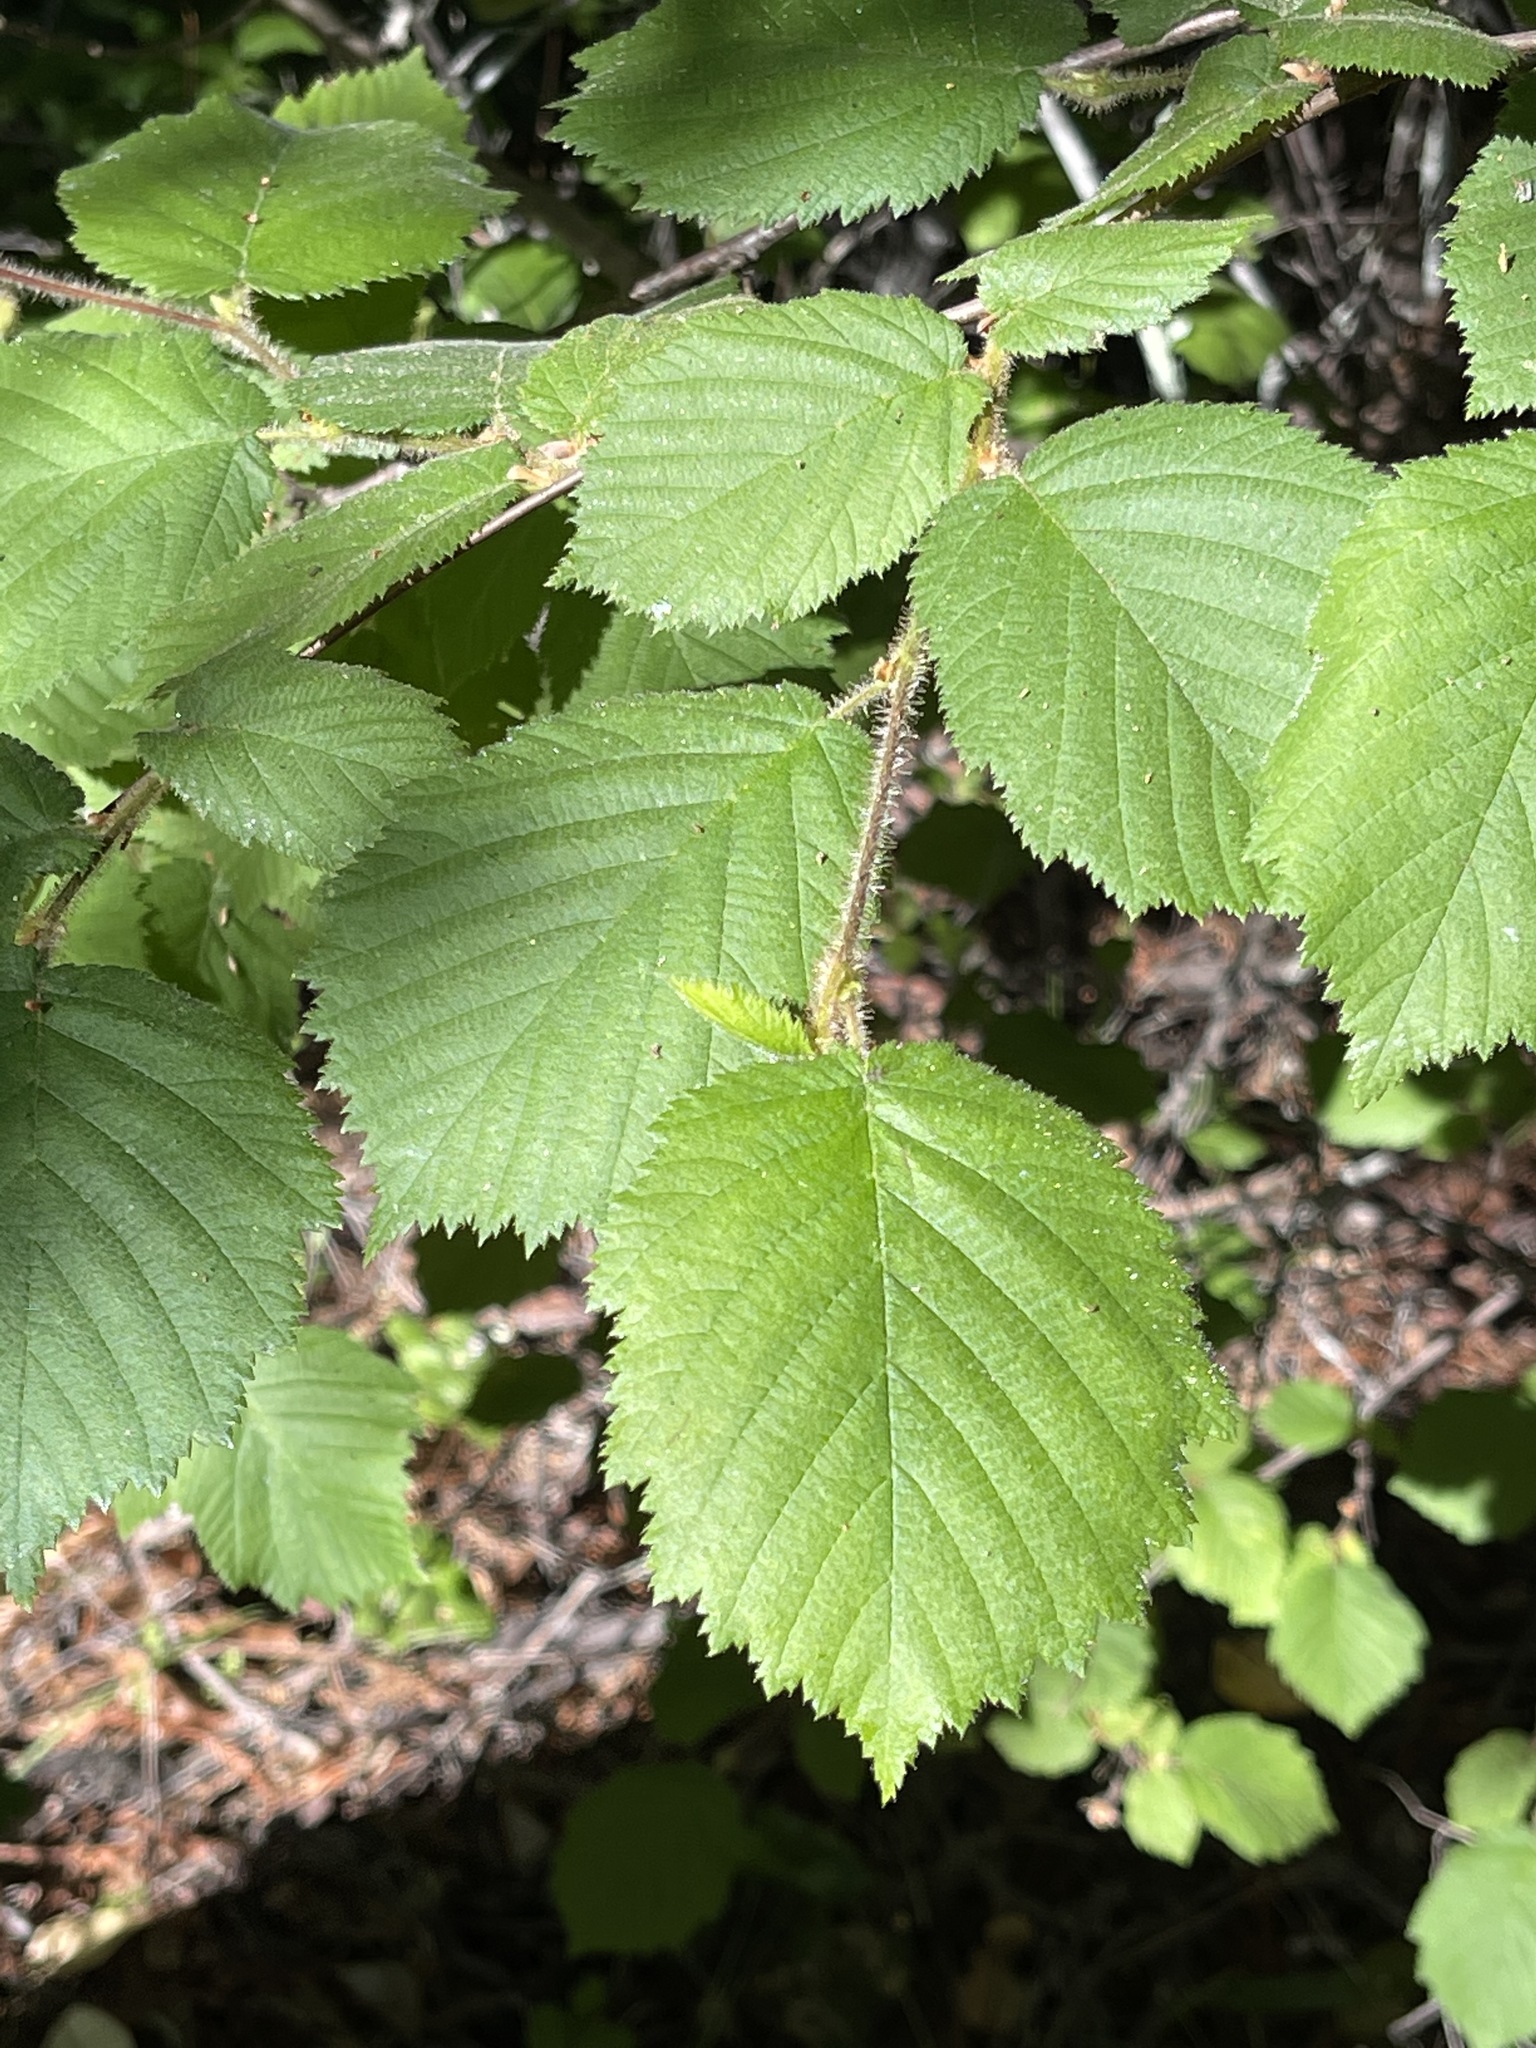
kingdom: Plantae
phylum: Tracheophyta
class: Magnoliopsida
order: Fagales
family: Betulaceae
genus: Corylus
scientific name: Corylus cornuta
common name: Beaked hazel
